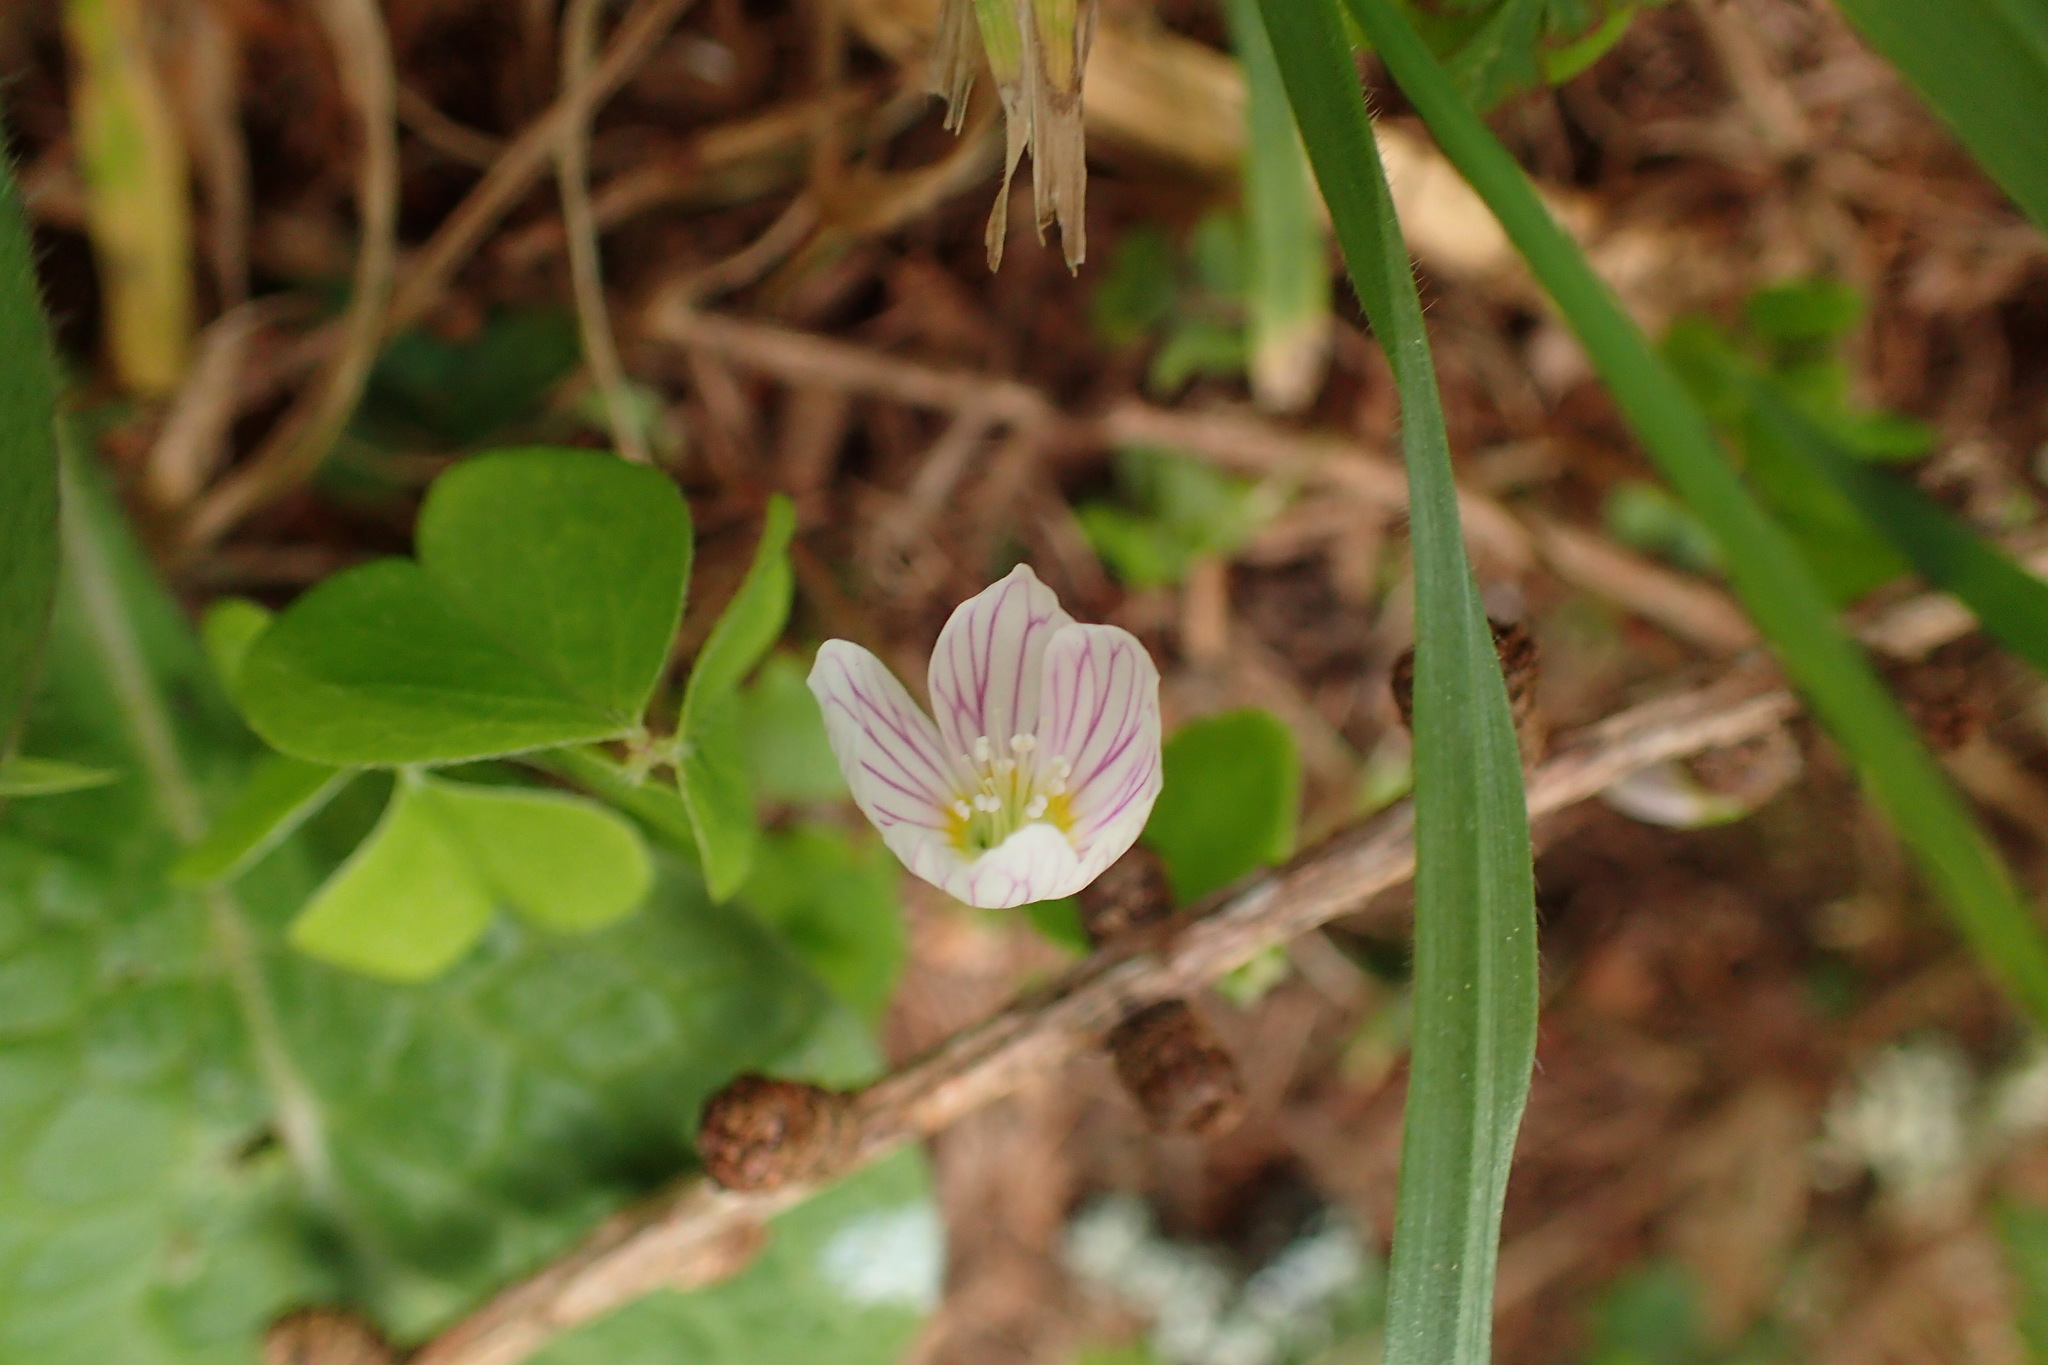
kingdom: Plantae
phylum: Tracheophyta
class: Magnoliopsida
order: Oxalidales
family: Oxalidaceae
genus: Oxalis
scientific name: Oxalis acetosella
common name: Wood-sorrel
